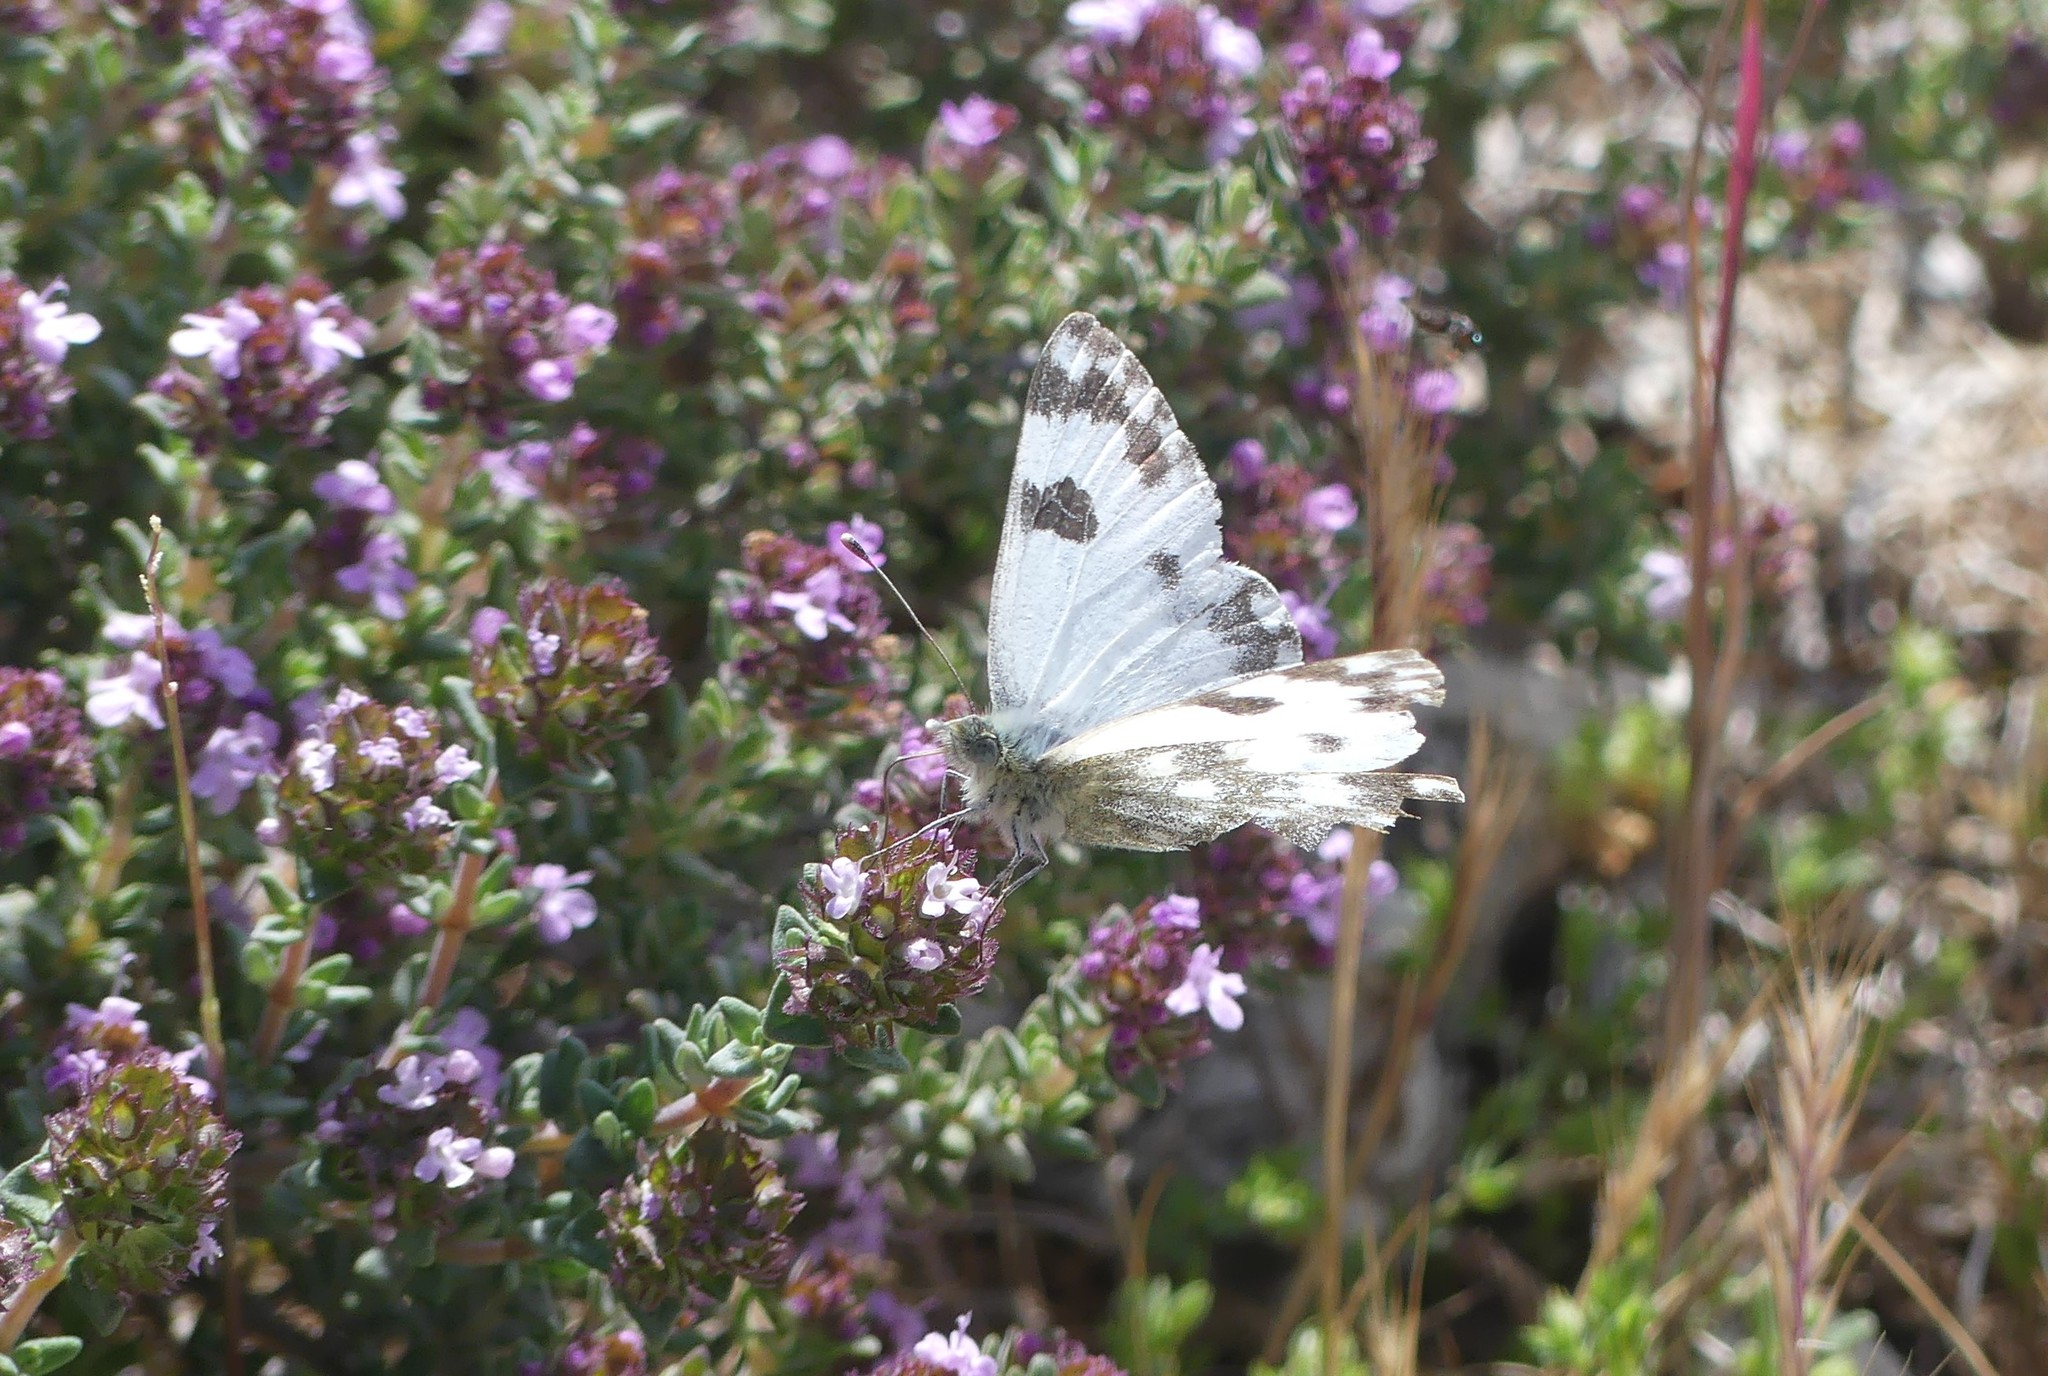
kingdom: Animalia
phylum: Arthropoda
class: Insecta
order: Lepidoptera
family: Pieridae
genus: Pontia
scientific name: Pontia daplidice
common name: Bath white
